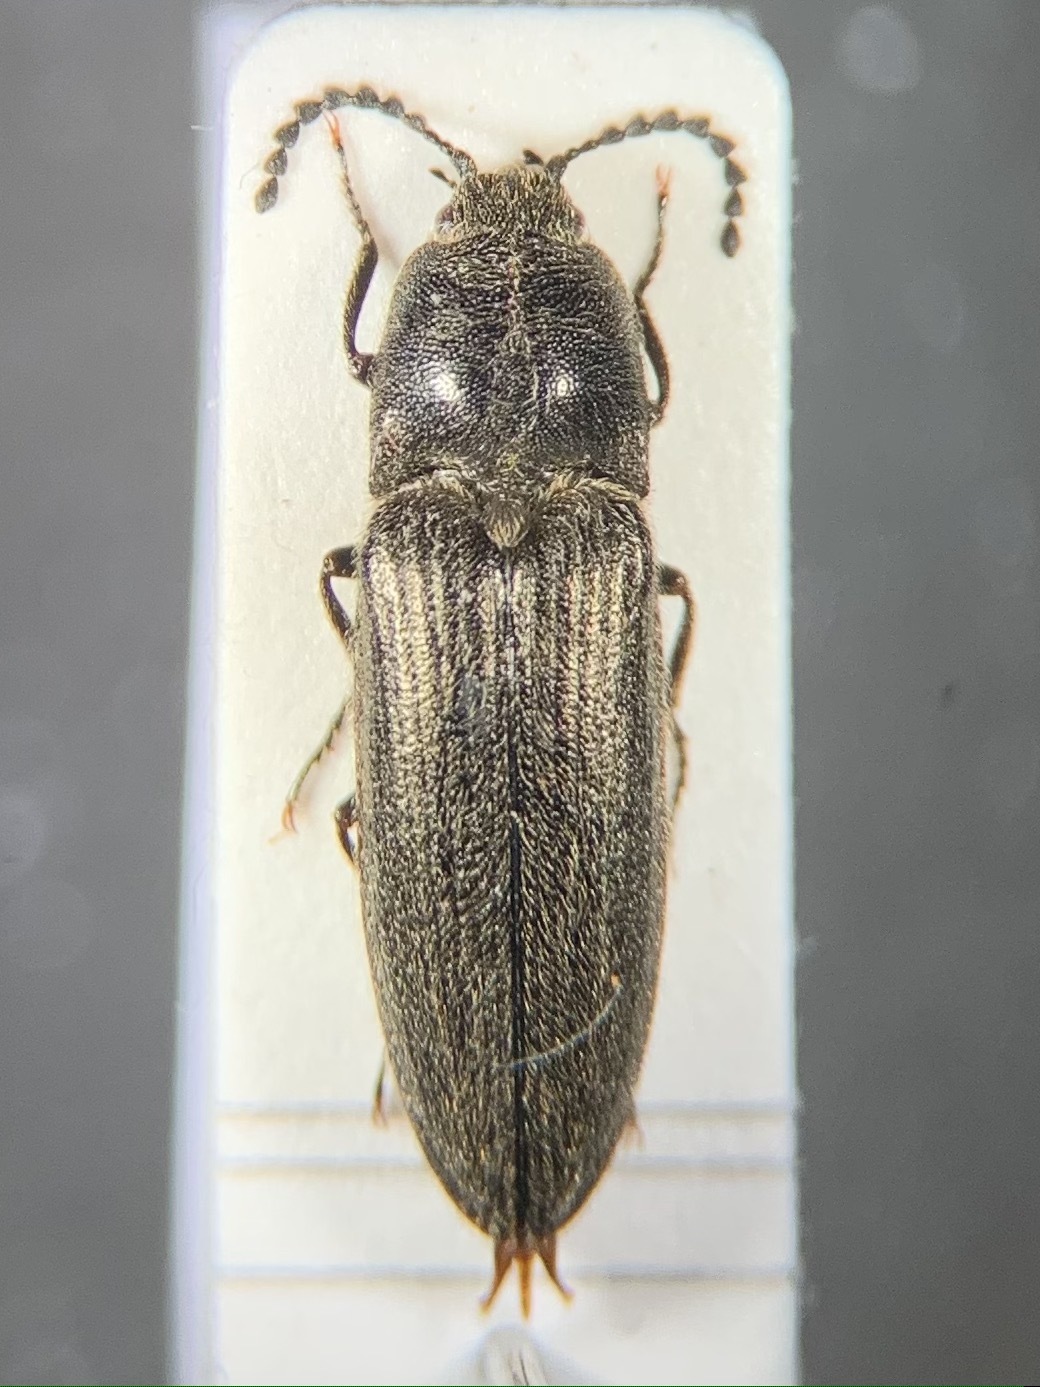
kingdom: Animalia
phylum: Arthropoda
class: Insecta
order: Coleoptera
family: Elateridae
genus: Cidnopus
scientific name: Cidnopus pseudopilosus
